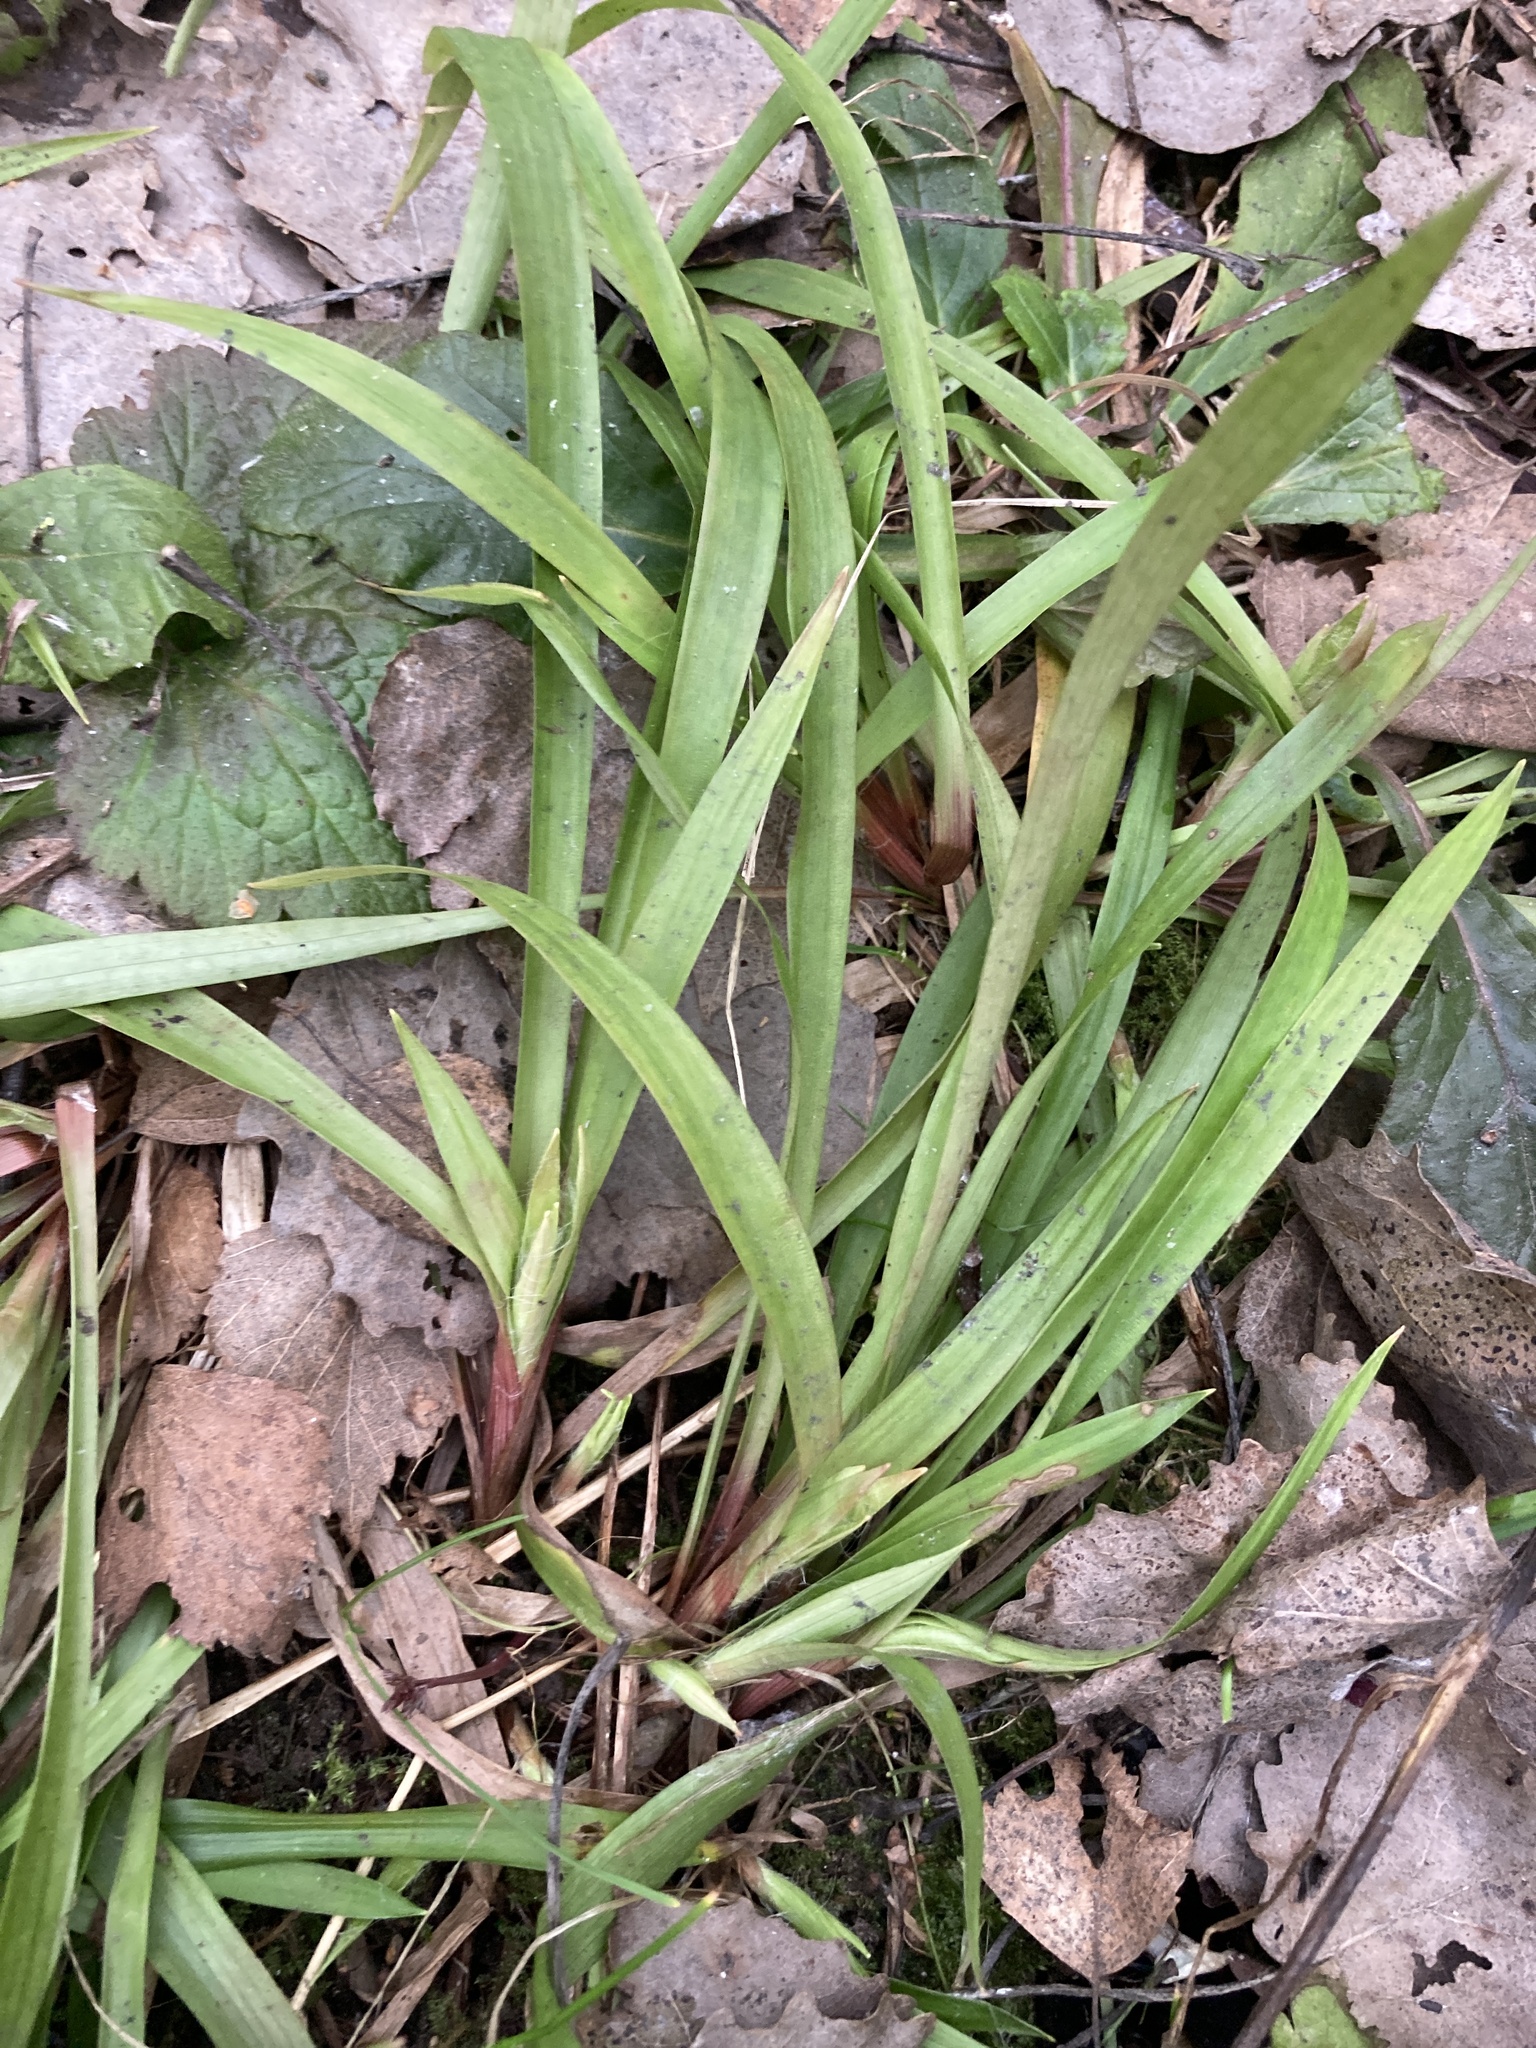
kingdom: Plantae
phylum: Tracheophyta
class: Liliopsida
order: Poales
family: Juncaceae
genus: Luzula
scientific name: Luzula pilosa
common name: Hairy wood-rush
